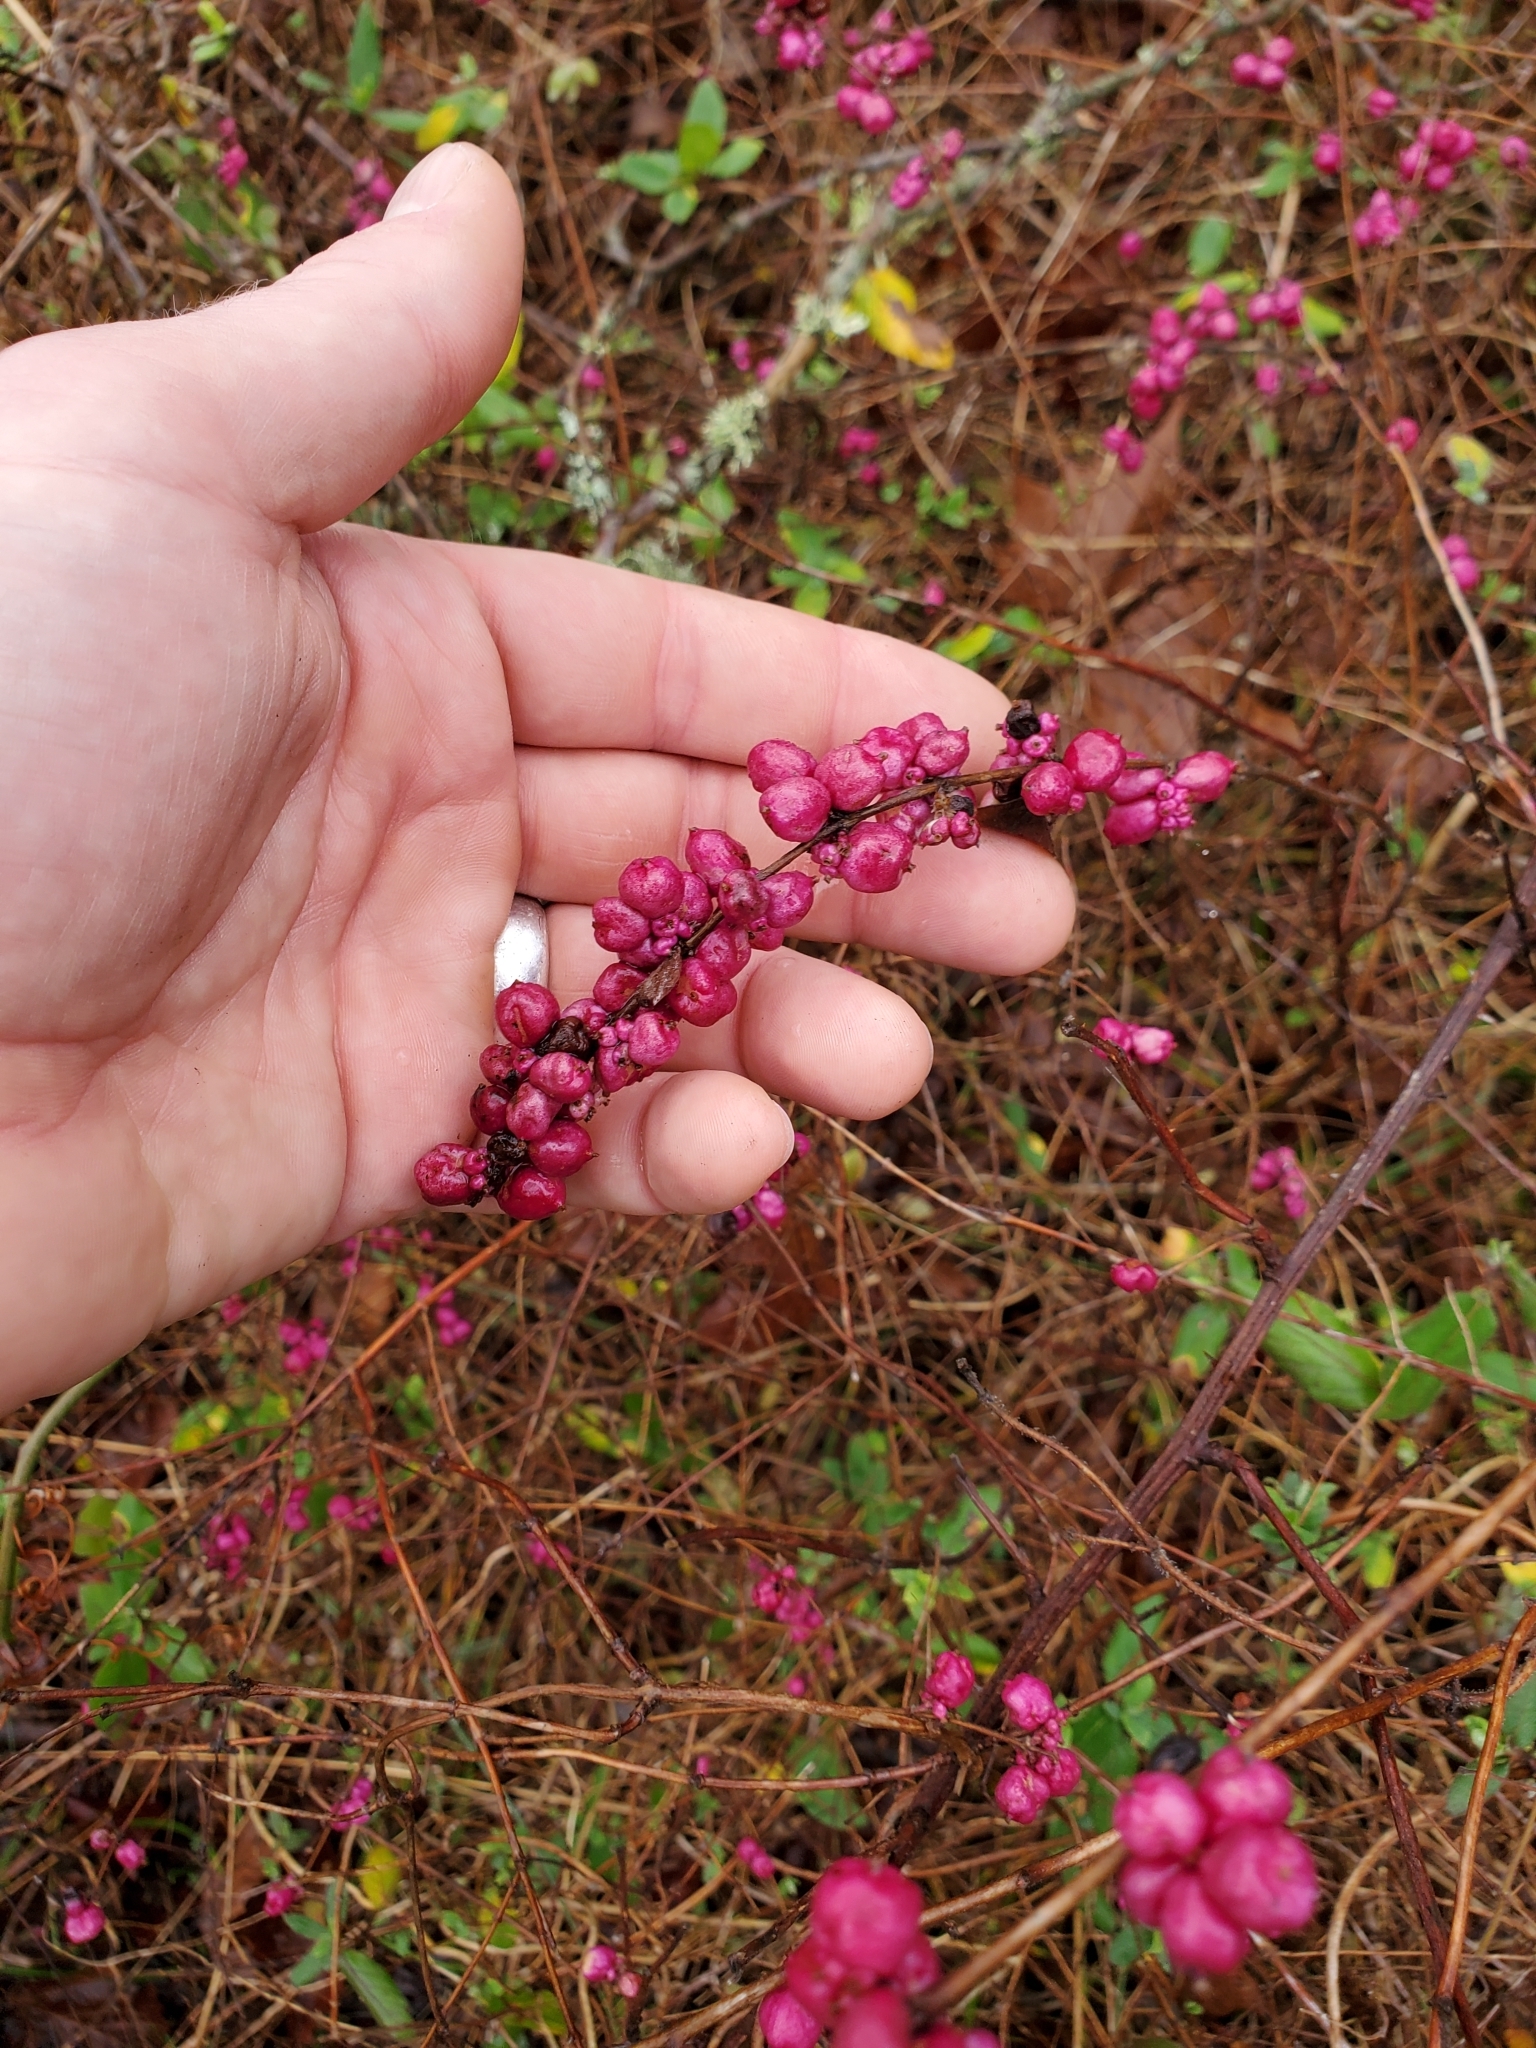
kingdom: Plantae
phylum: Tracheophyta
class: Magnoliopsida
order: Dipsacales
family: Caprifoliaceae
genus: Symphoricarpos
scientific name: Symphoricarpos orbiculatus
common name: Coralberry
